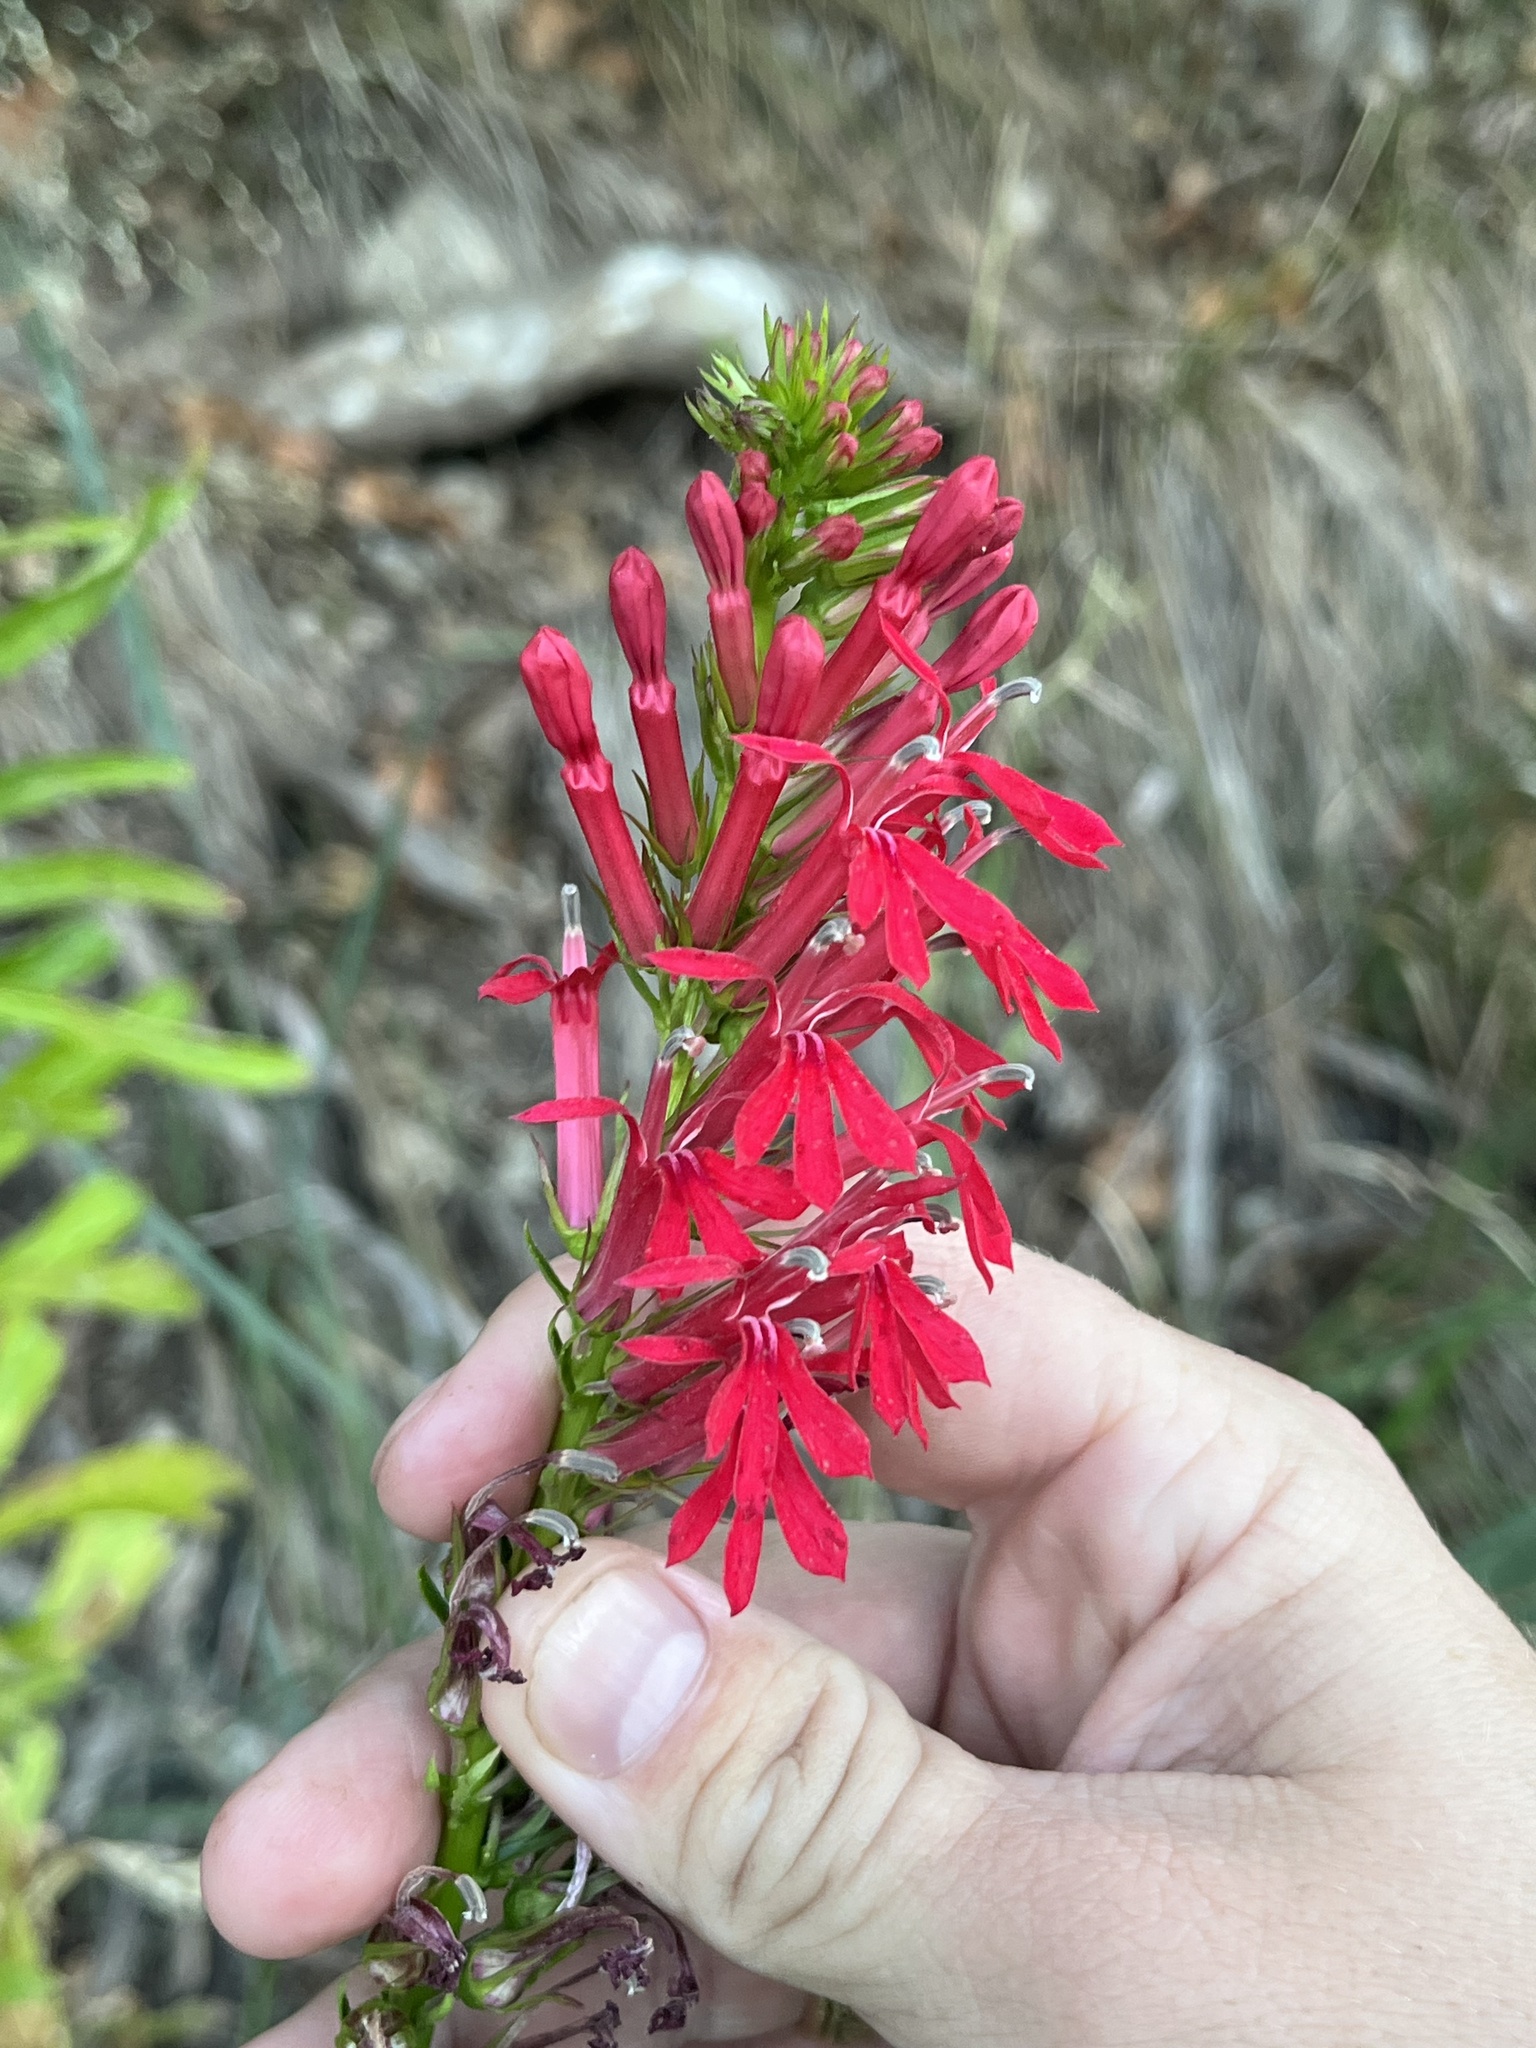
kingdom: Plantae
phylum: Tracheophyta
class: Magnoliopsida
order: Asterales
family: Campanulaceae
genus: Lobelia
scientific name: Lobelia cardinalis
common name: Cardinal flower
